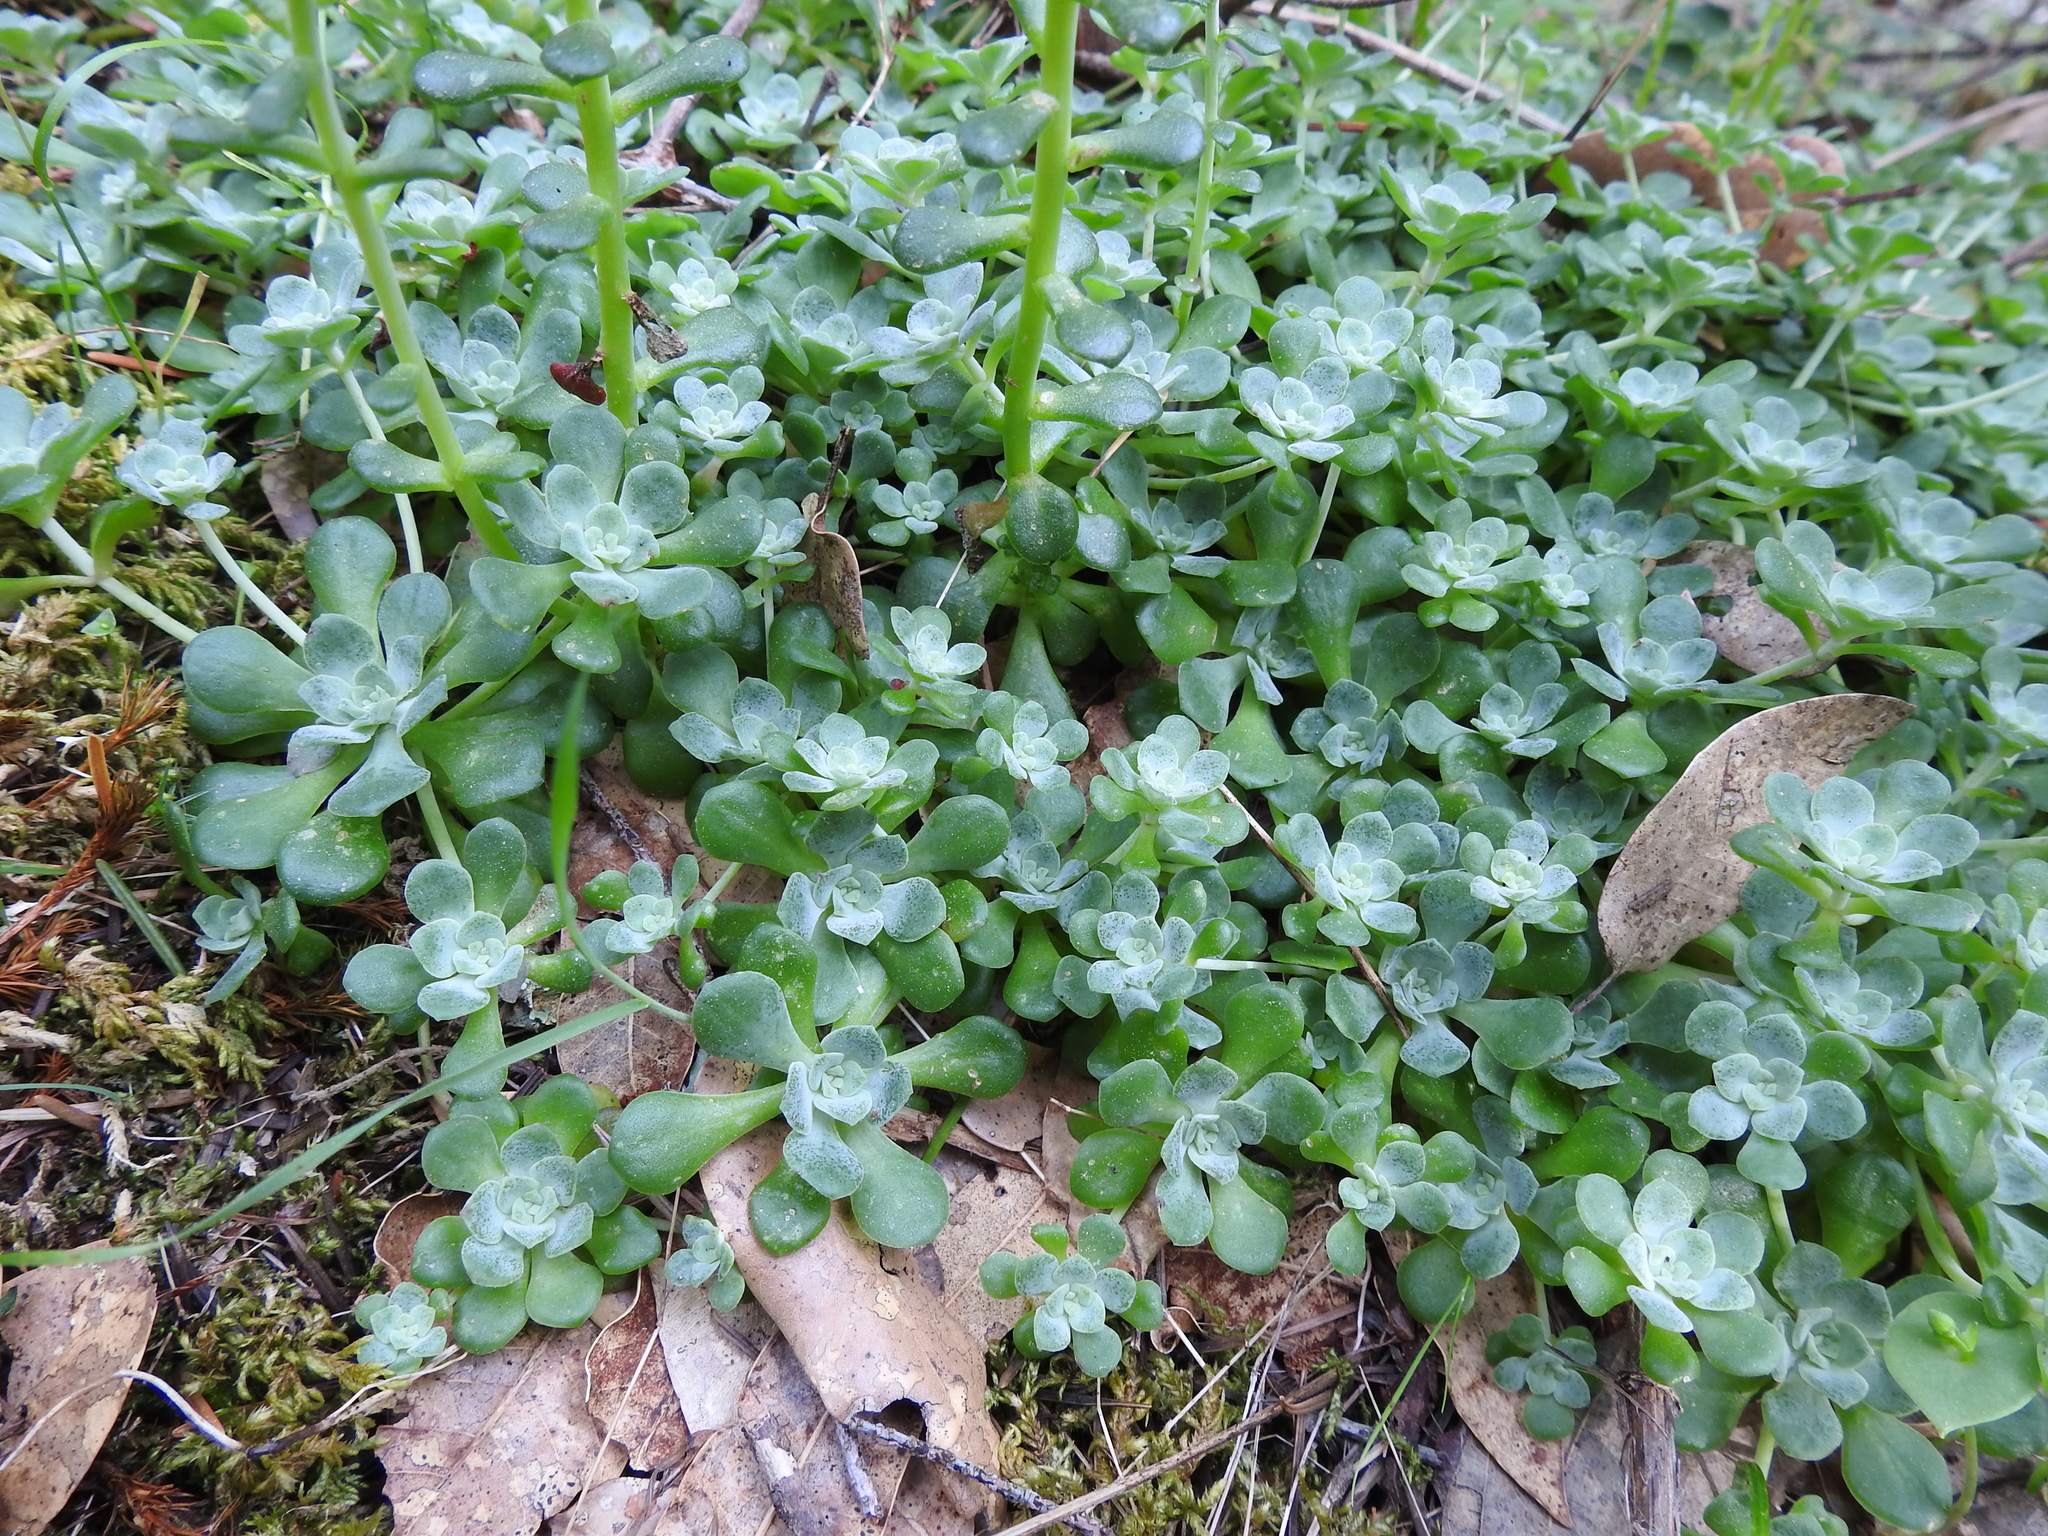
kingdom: Plantae
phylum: Tracheophyta
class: Magnoliopsida
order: Saxifragales
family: Crassulaceae
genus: Sedum
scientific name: Sedum spathulifolium
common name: Colorado stonecrop
